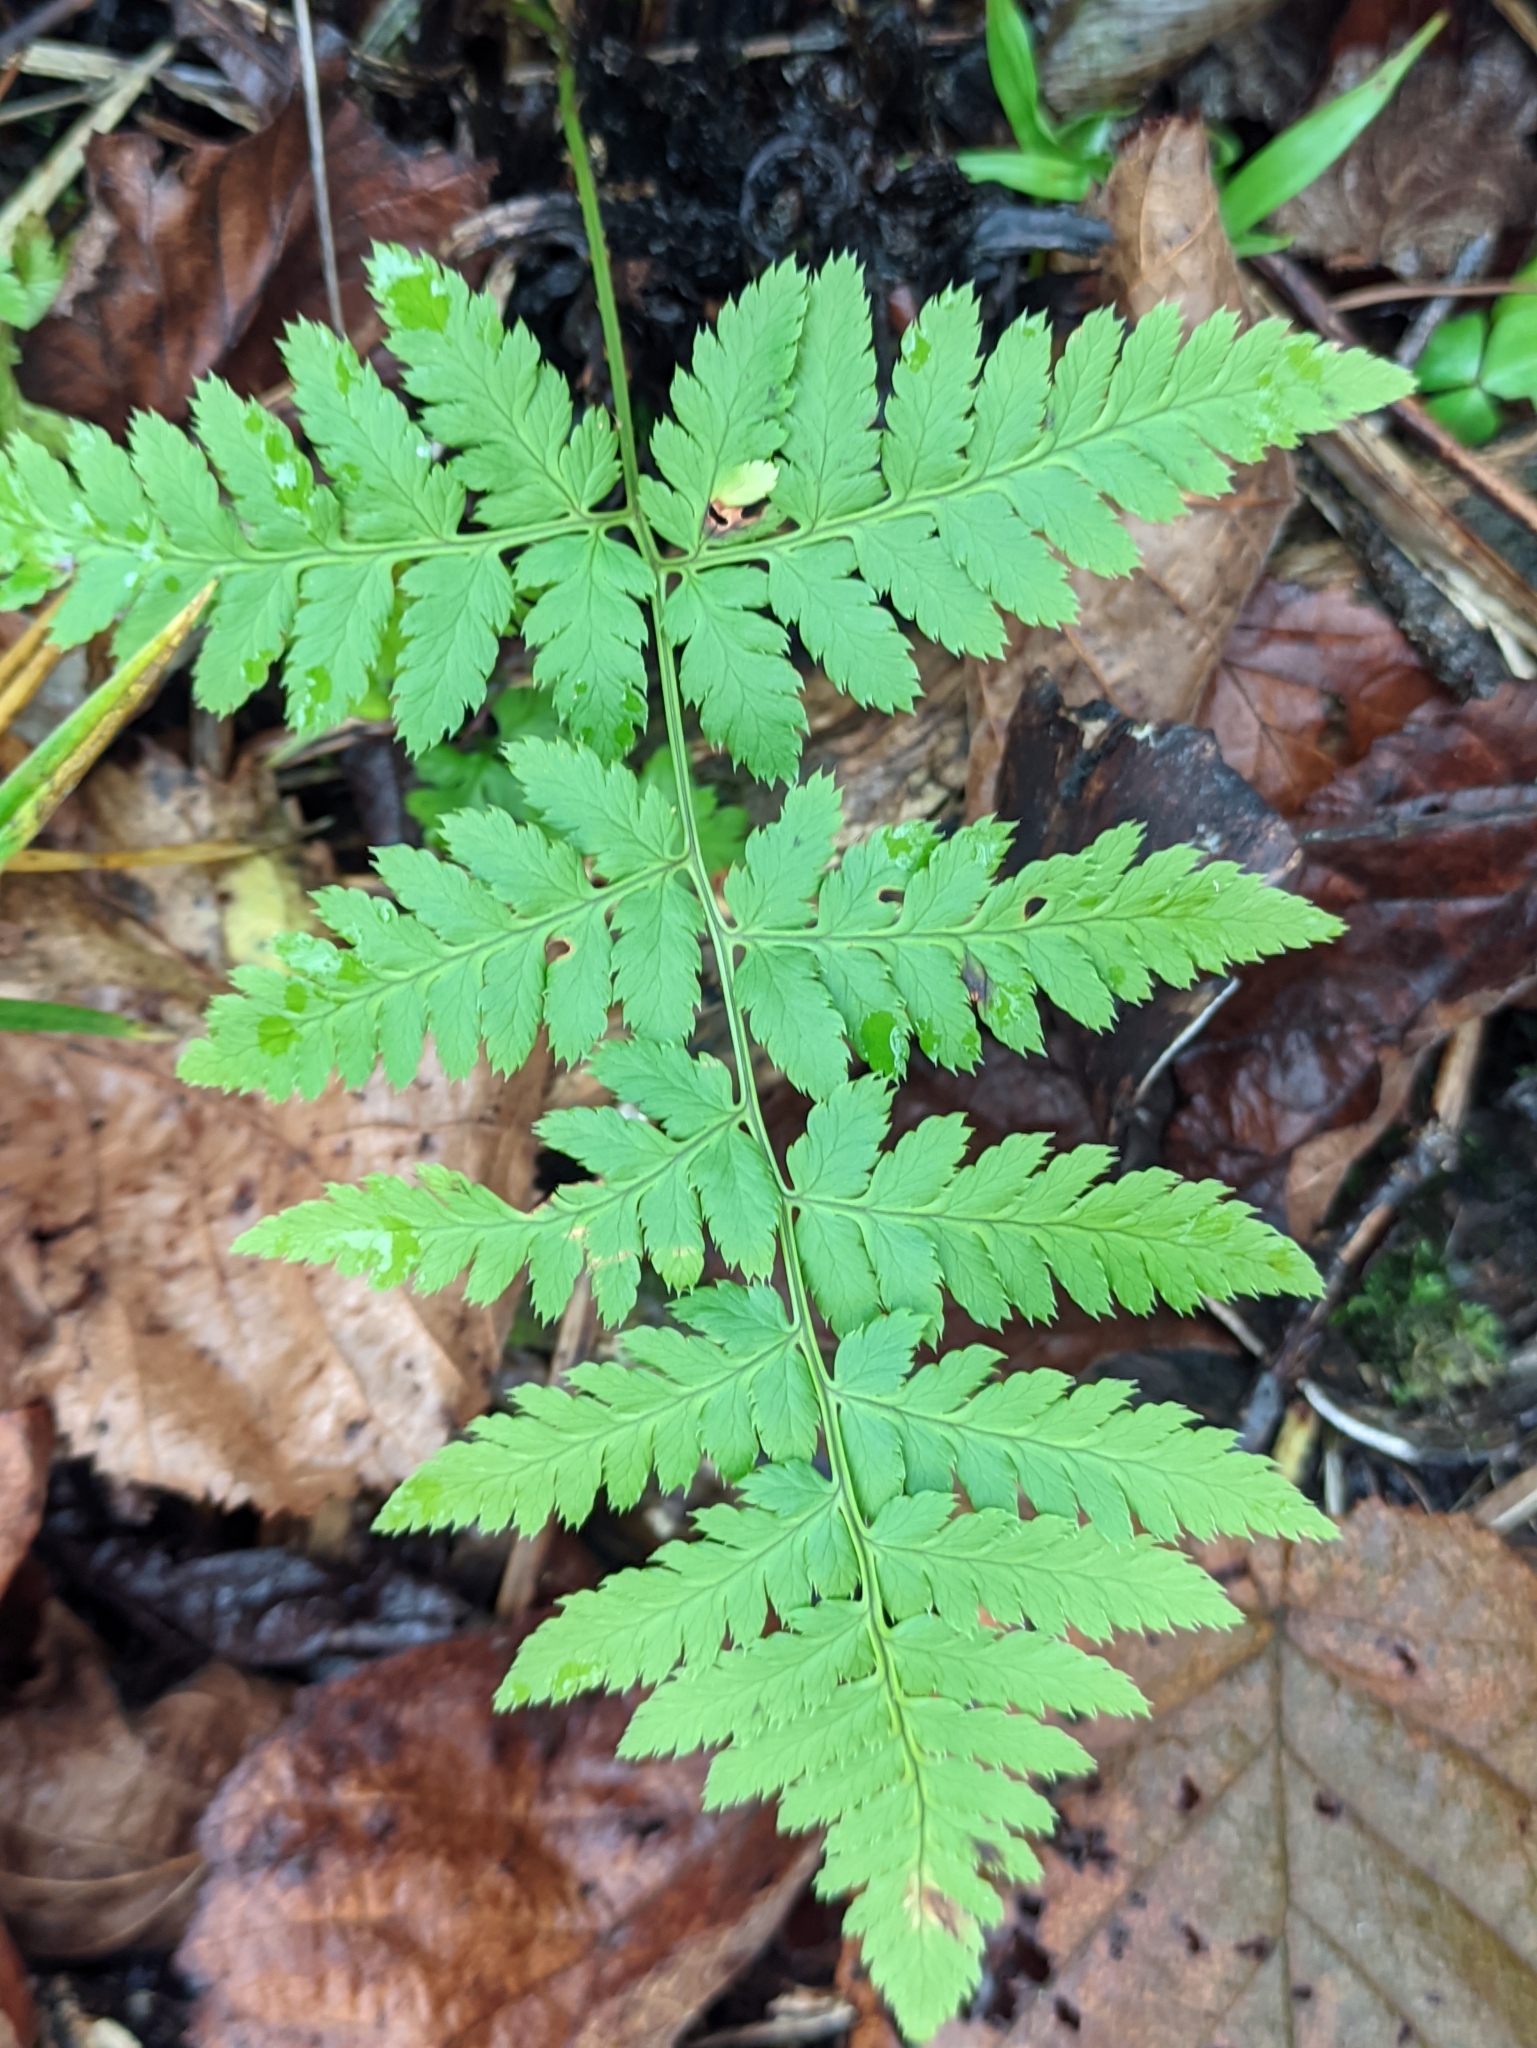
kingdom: Plantae
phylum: Tracheophyta
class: Polypodiopsida
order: Polypodiales
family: Dryopteridaceae
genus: Dryopteris
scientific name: Dryopteris carthusiana
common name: Narrow buckler-fern
